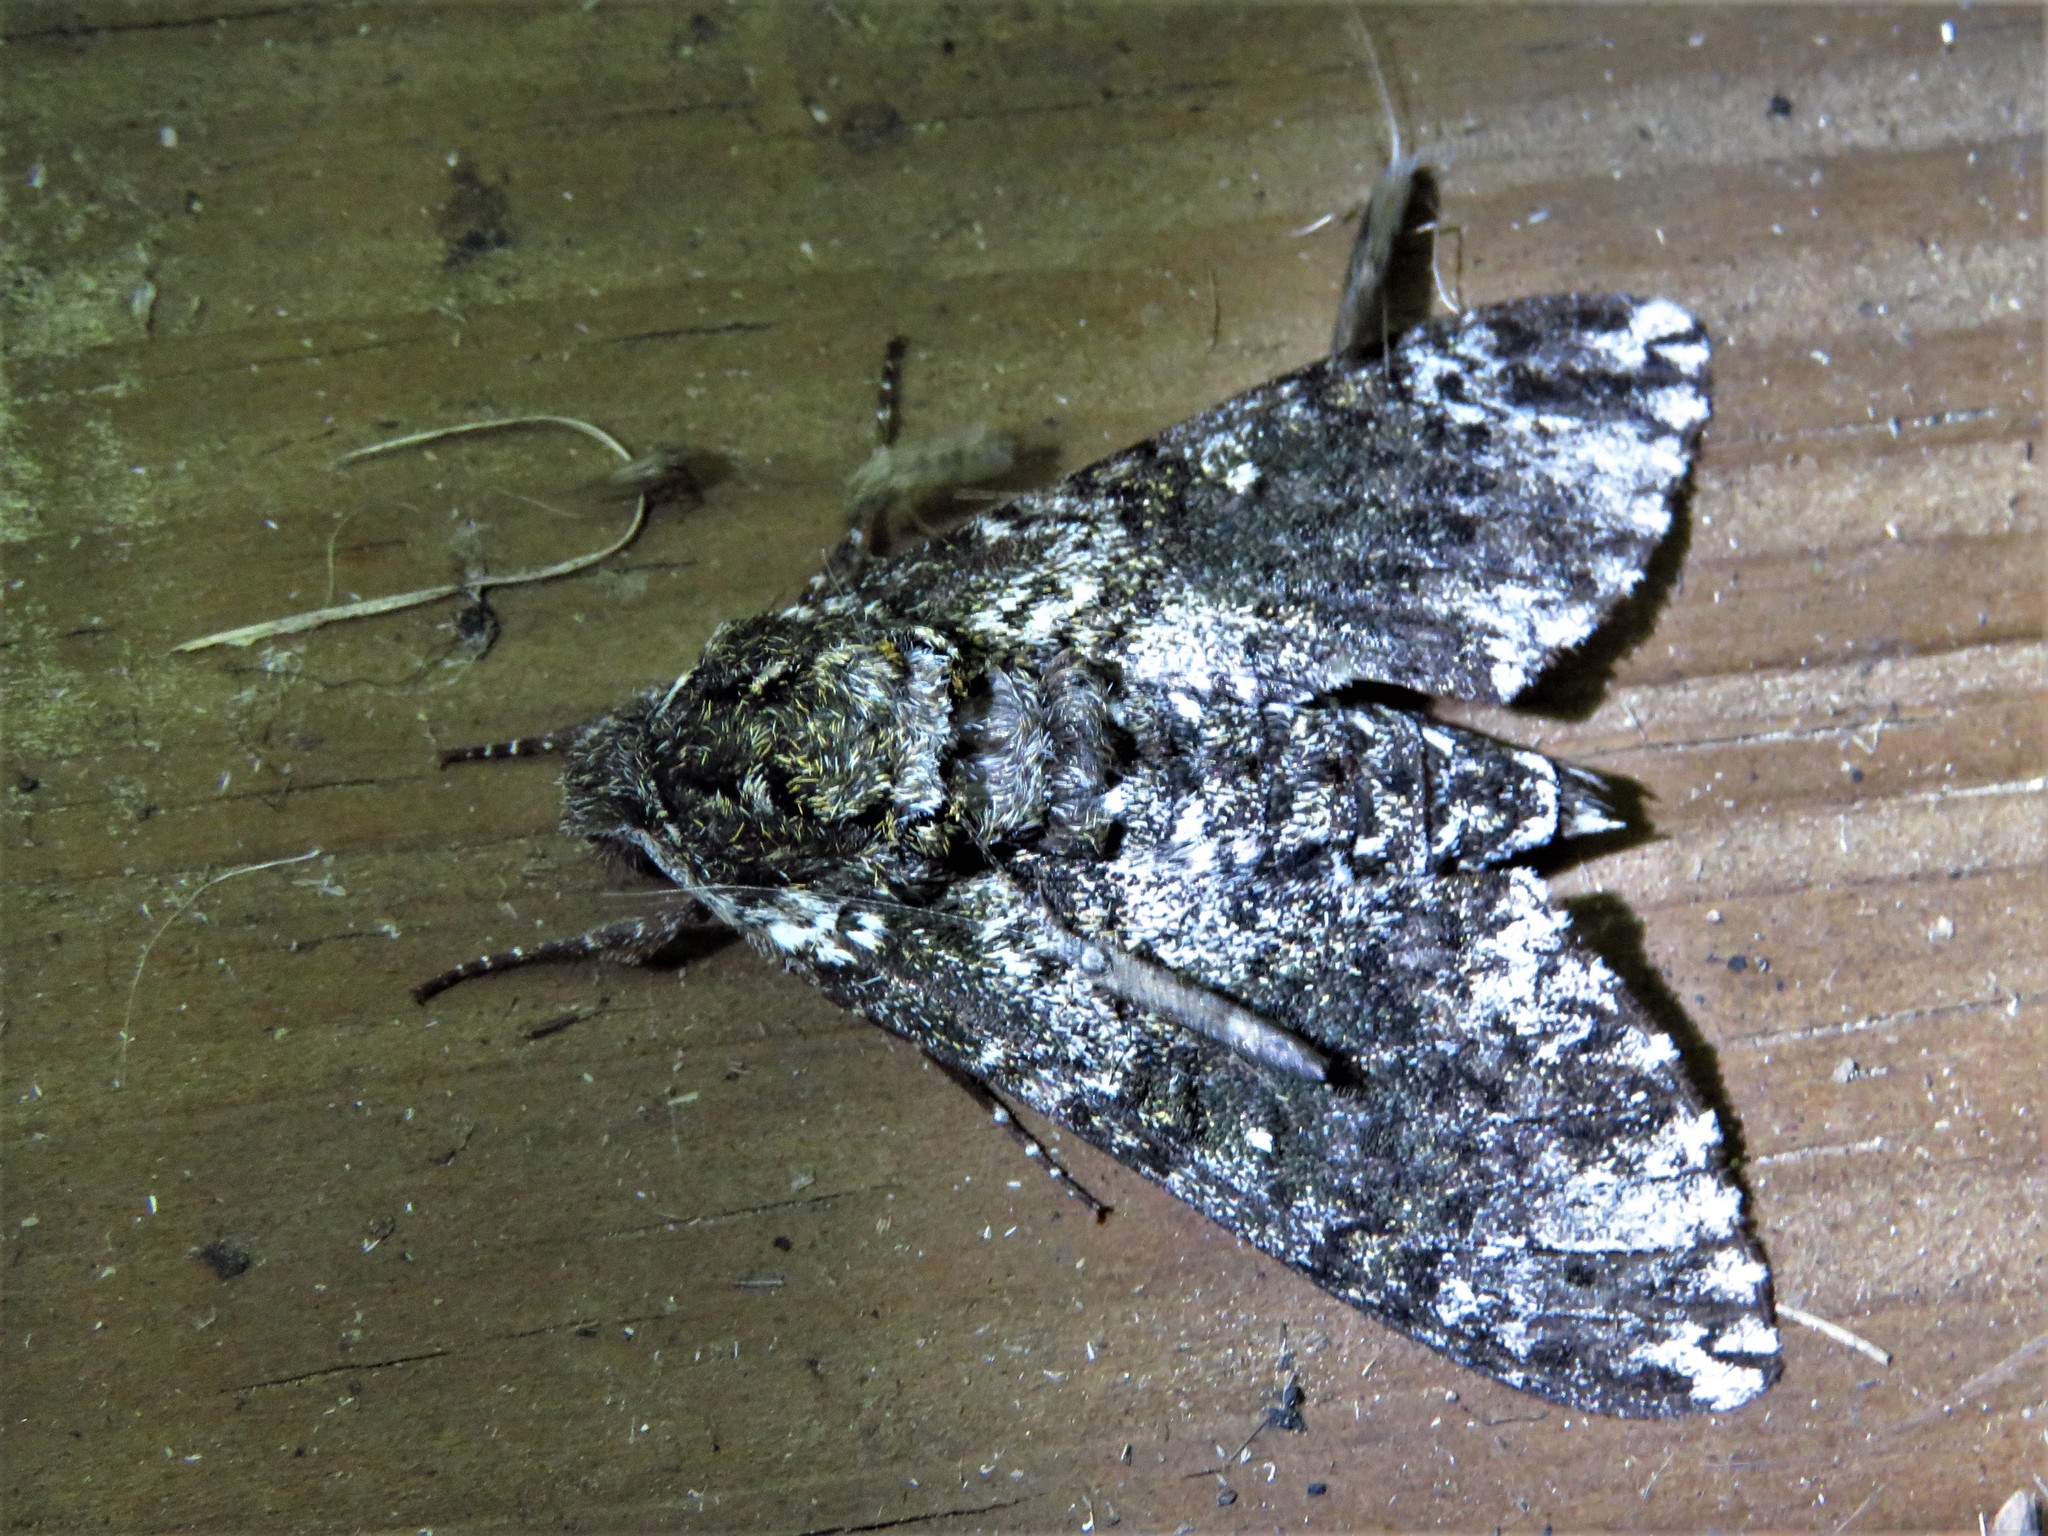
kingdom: Animalia
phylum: Arthropoda
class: Insecta
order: Lepidoptera
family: Sphingidae
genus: Dolba
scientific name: Dolba hyloeus
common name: Pawpaw sphinx
